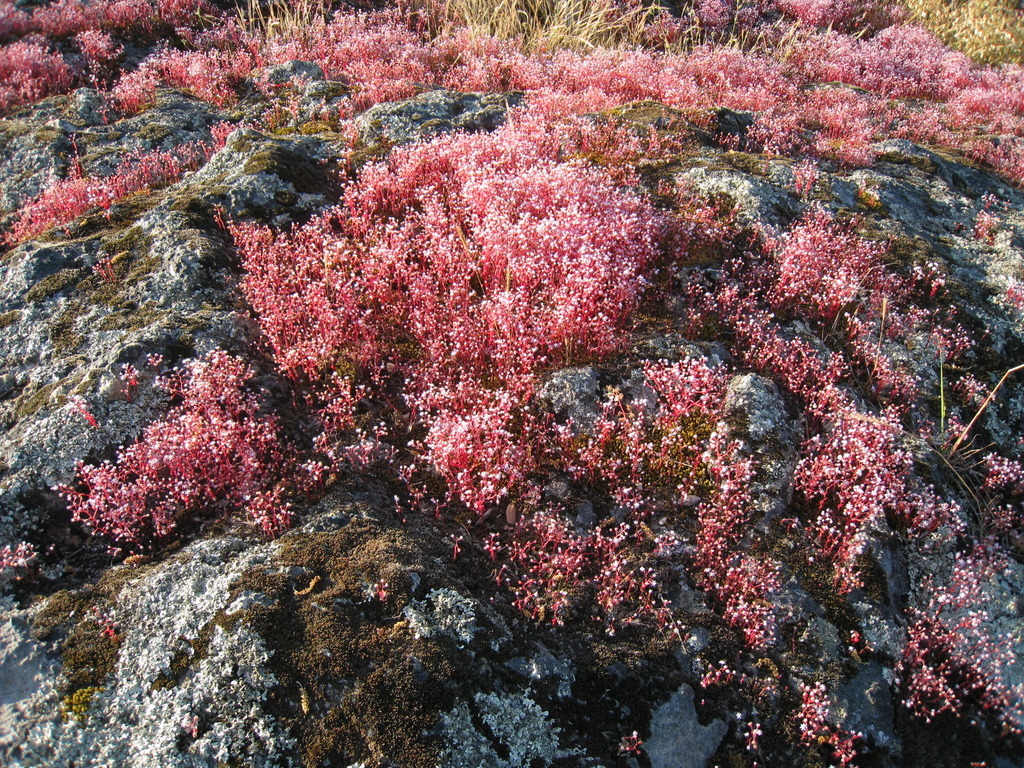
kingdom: Plantae
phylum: Tracheophyta
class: Magnoliopsida
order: Saxifragales
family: Crassulaceae
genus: Sedum
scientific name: Sedum caeruleum
